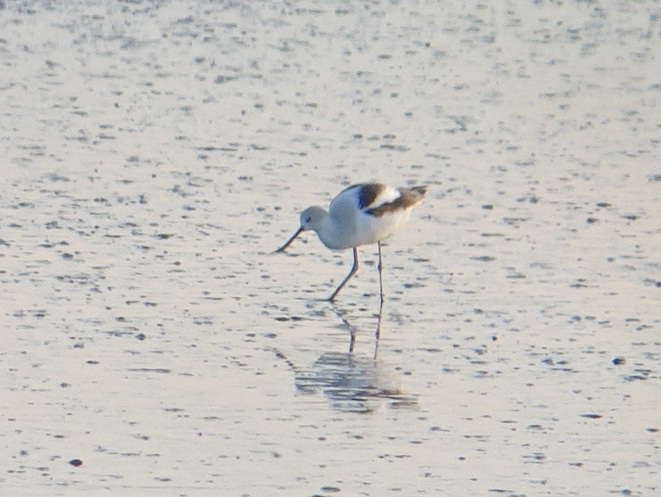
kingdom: Animalia
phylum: Chordata
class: Aves
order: Charadriiformes
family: Recurvirostridae
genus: Recurvirostra
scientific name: Recurvirostra americana
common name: American avocet
